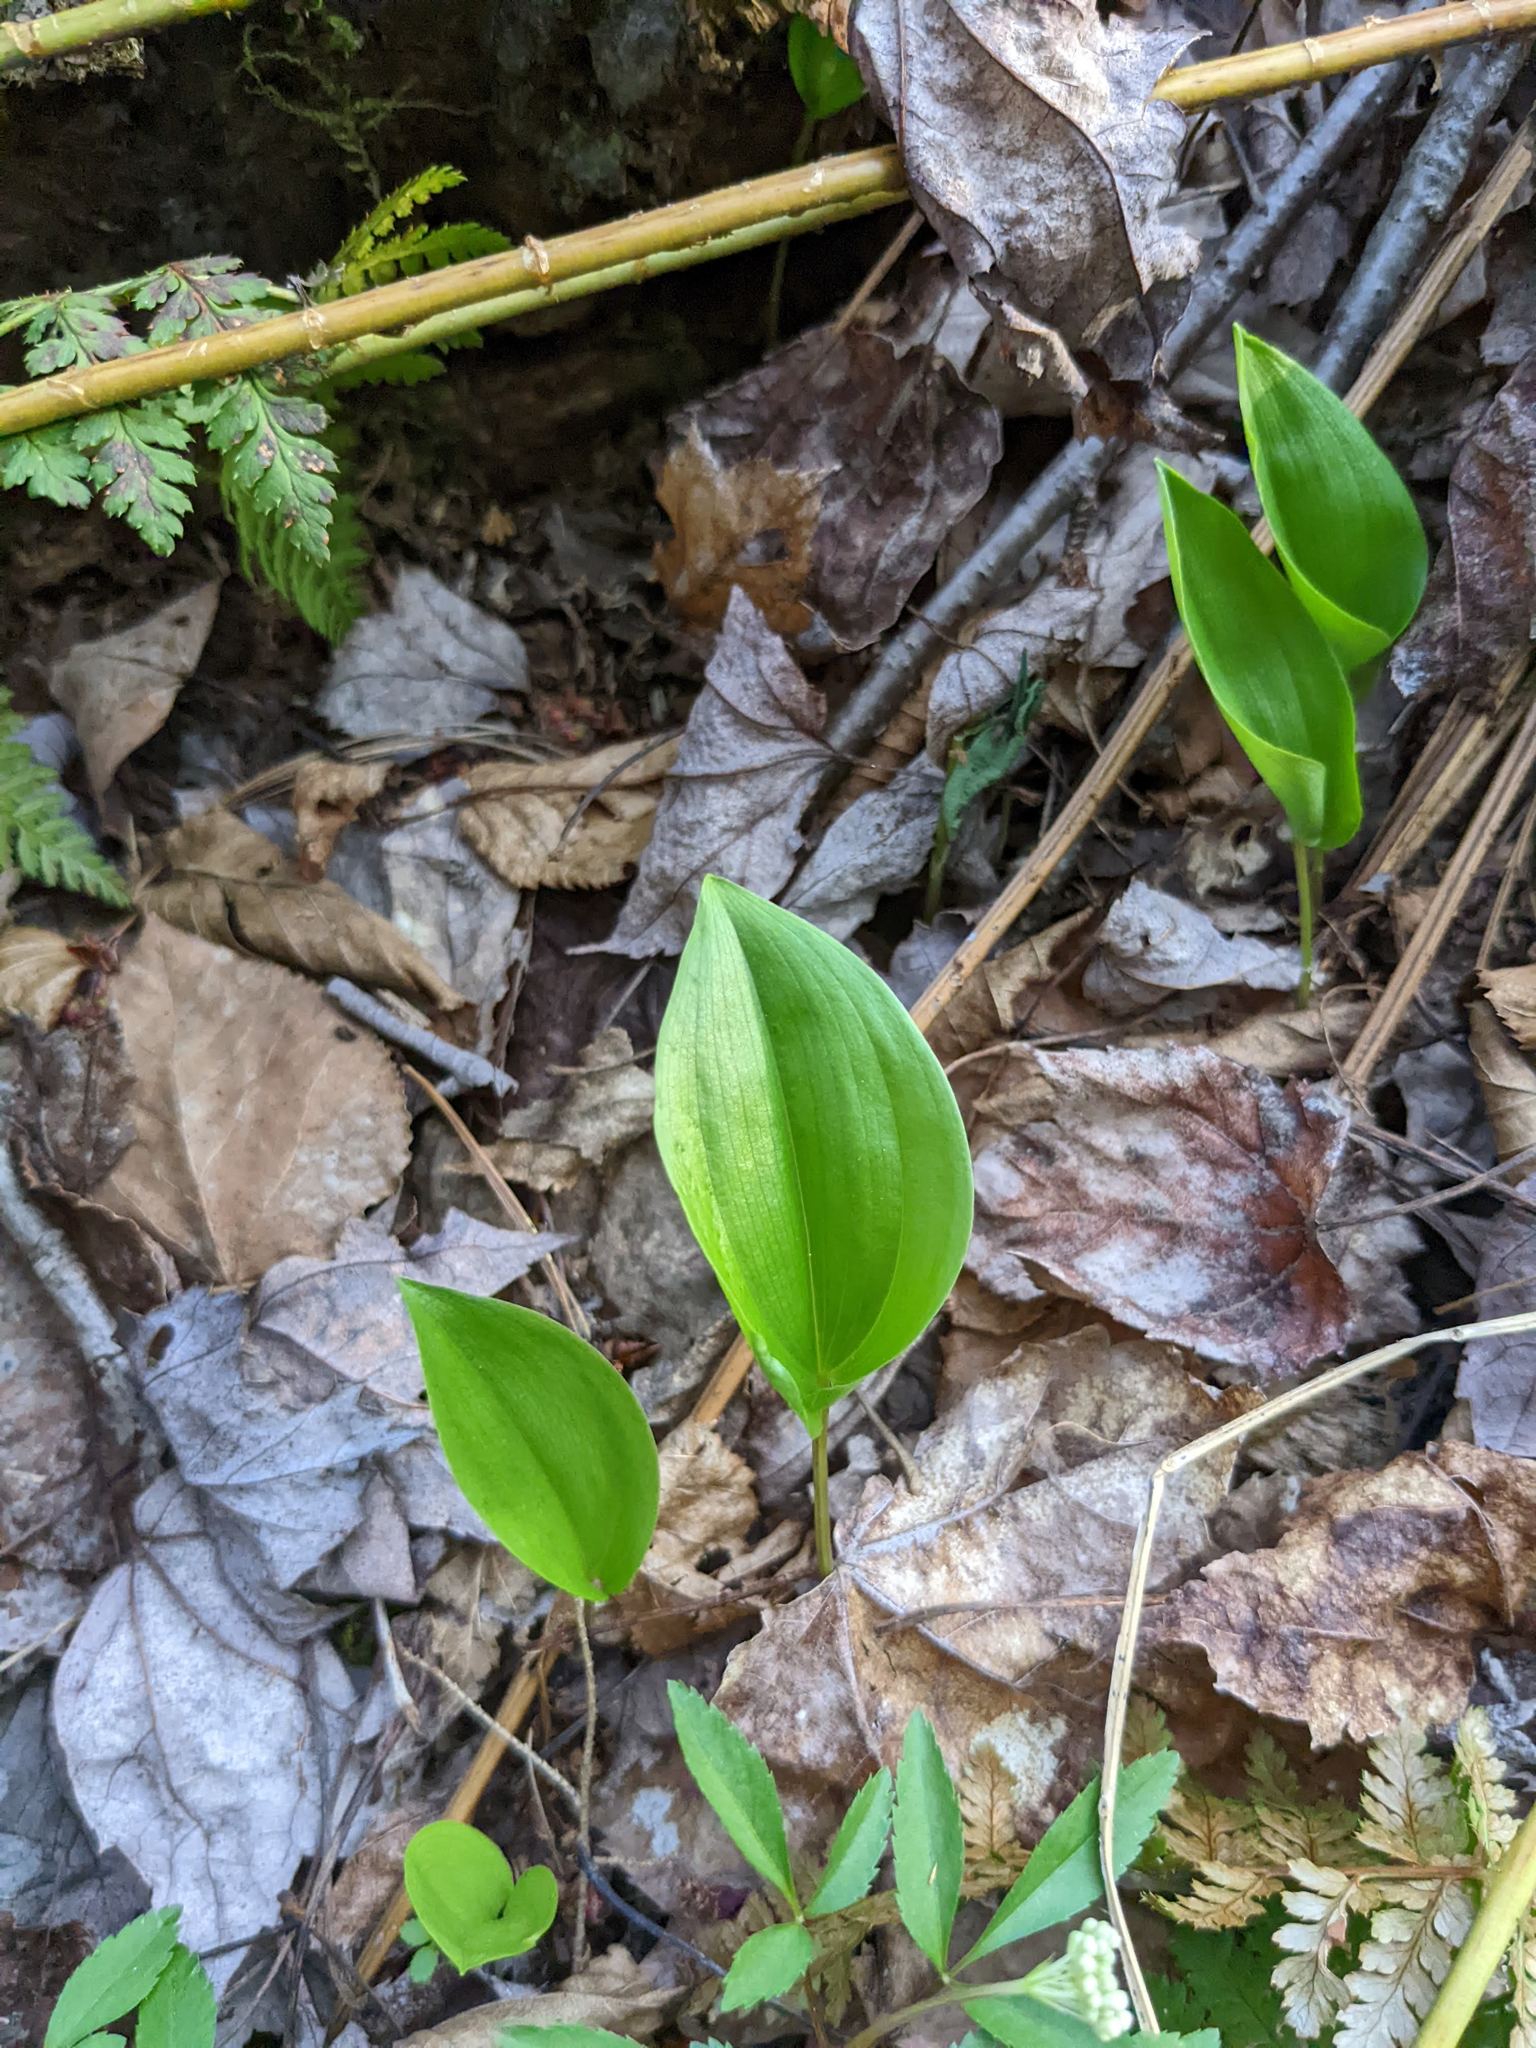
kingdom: Plantae
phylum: Tracheophyta
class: Liliopsida
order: Asparagales
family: Asparagaceae
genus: Maianthemum
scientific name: Maianthemum canadense
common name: False lily-of-the-valley
